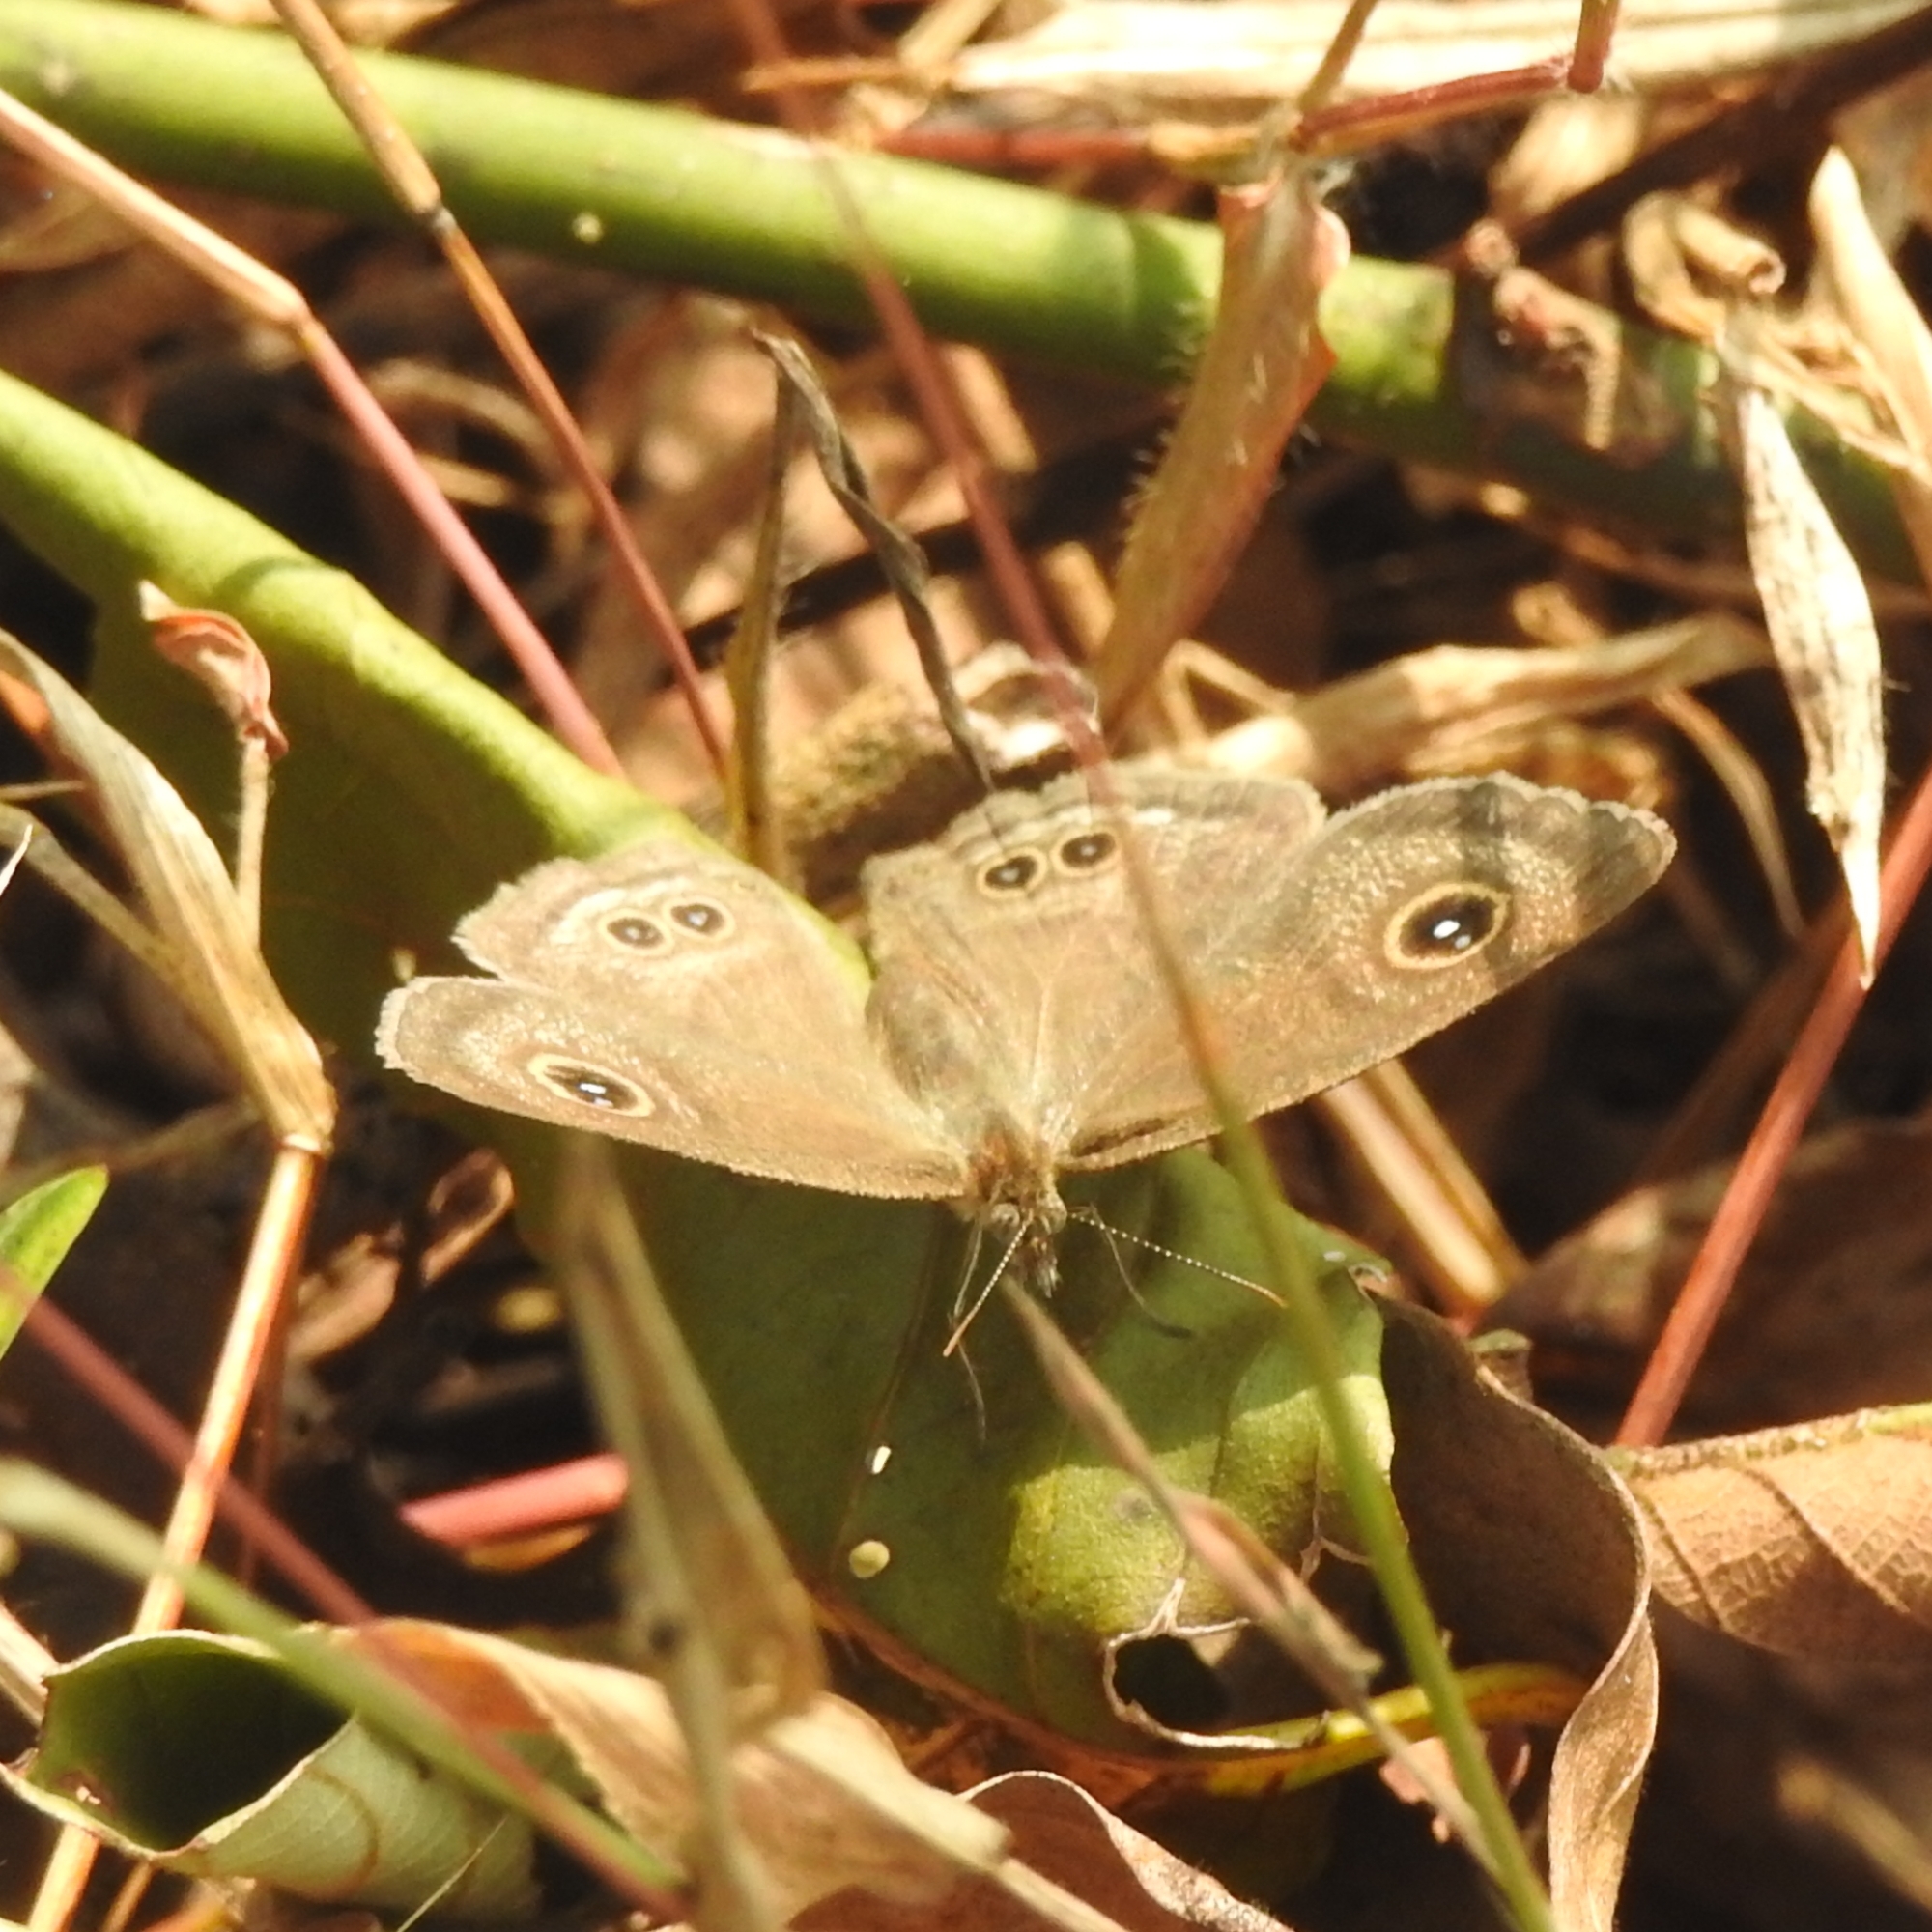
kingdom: Animalia
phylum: Arthropoda
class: Insecta
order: Lepidoptera
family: Nymphalidae
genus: Ypthima
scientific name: Ypthima baldus
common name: Common five-ring
